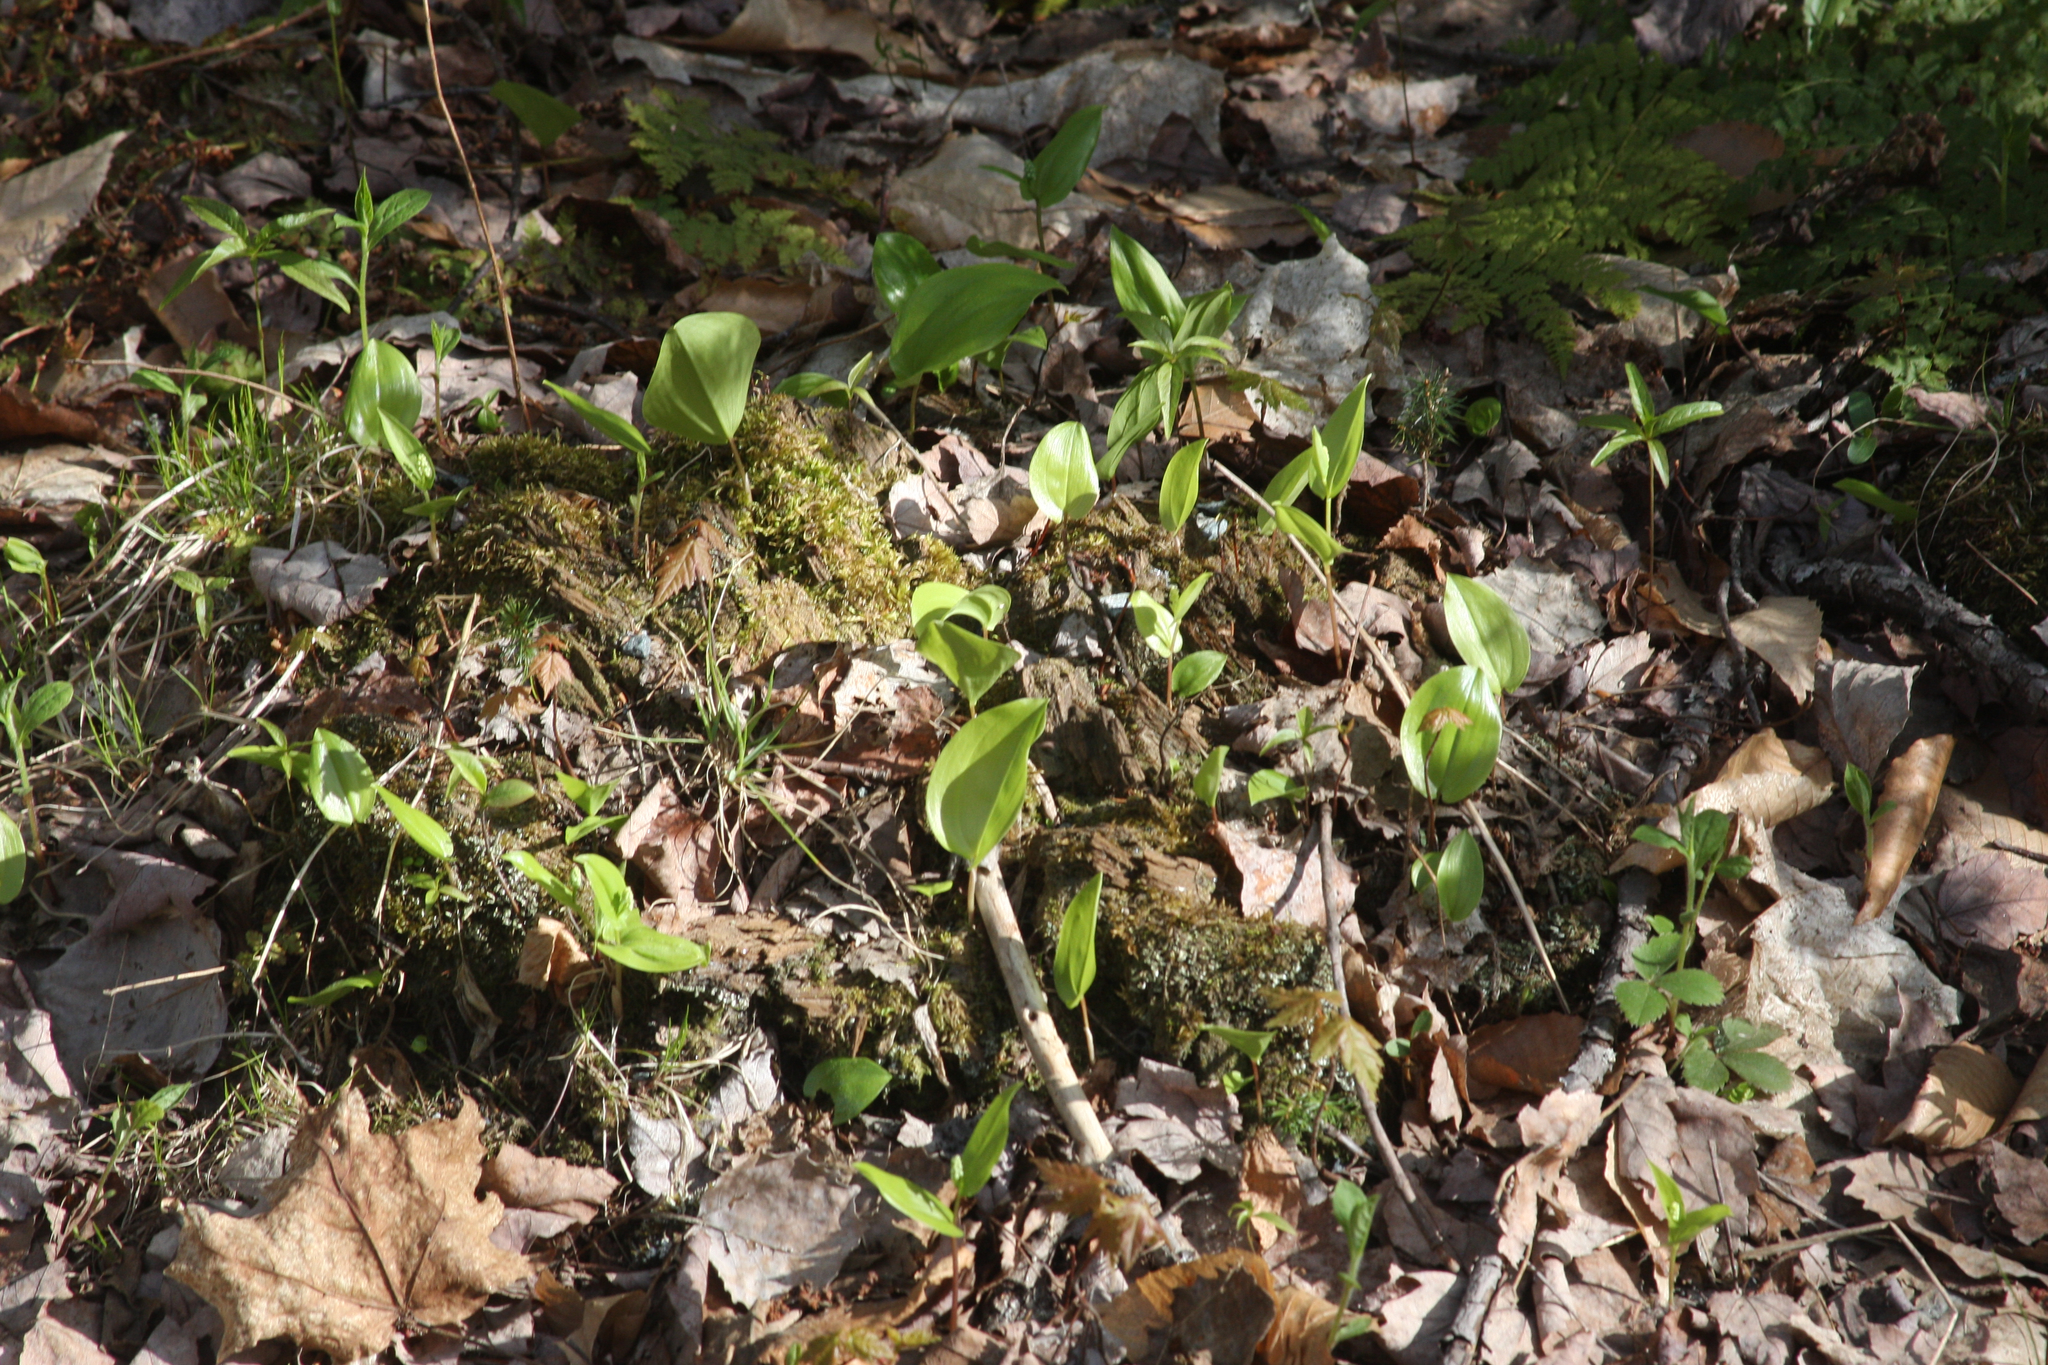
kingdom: Plantae
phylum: Tracheophyta
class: Liliopsida
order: Asparagales
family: Asparagaceae
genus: Maianthemum
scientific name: Maianthemum canadense
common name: False lily-of-the-valley
